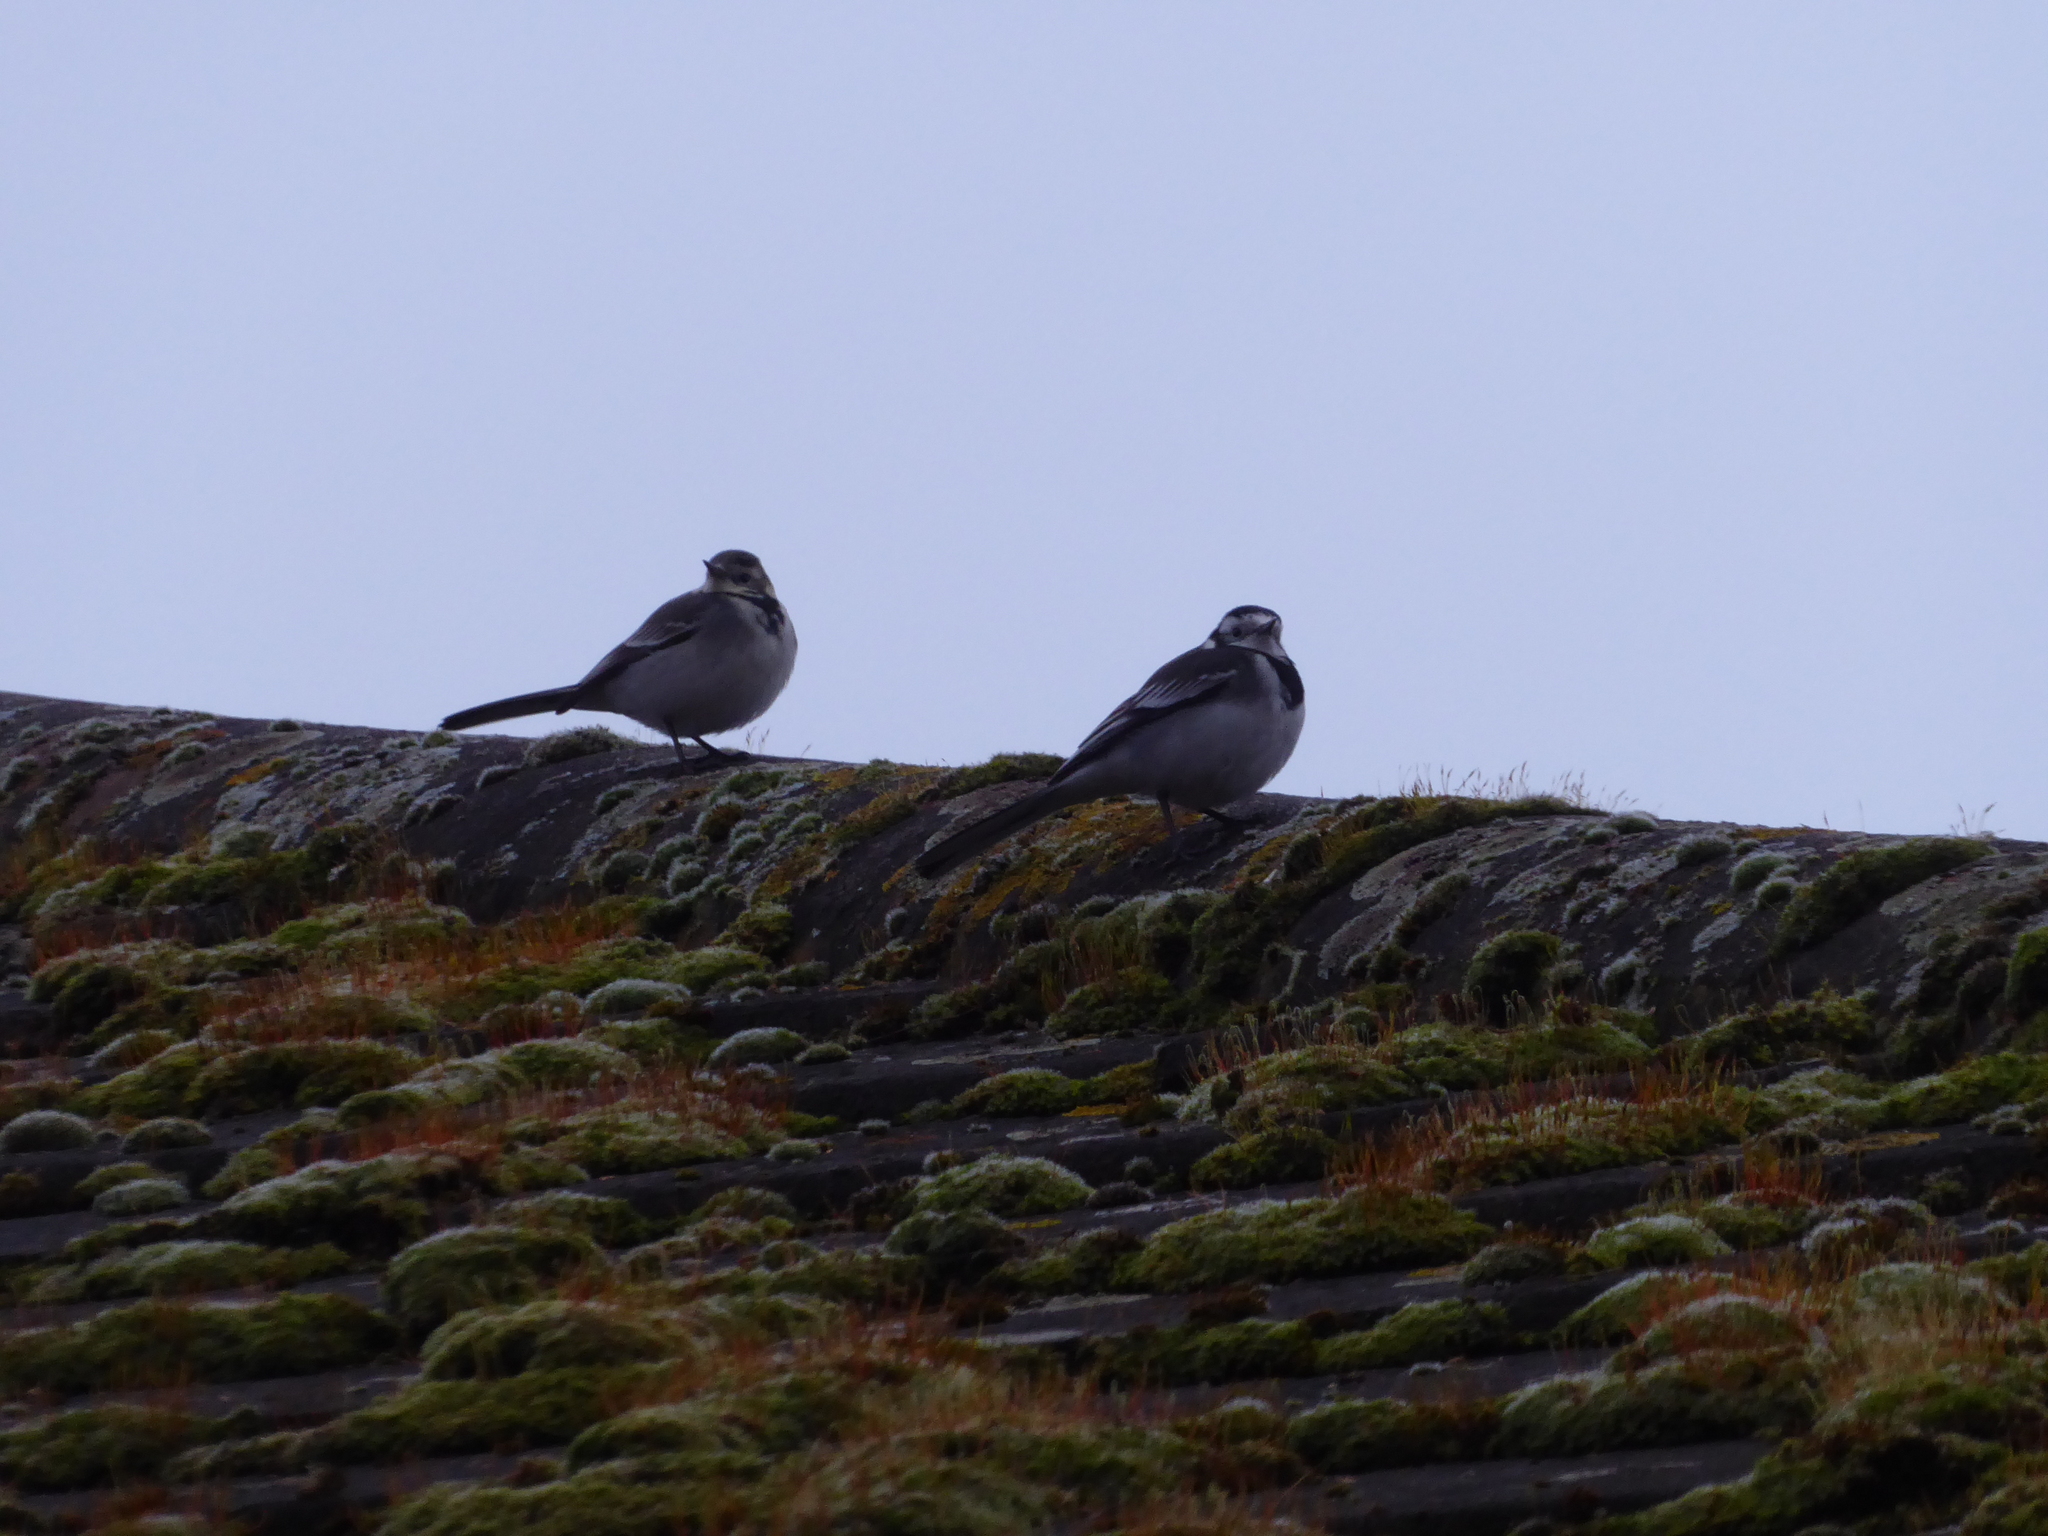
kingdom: Animalia
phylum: Chordata
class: Aves
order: Passeriformes
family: Motacillidae
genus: Motacilla
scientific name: Motacilla alba
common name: White wagtail
